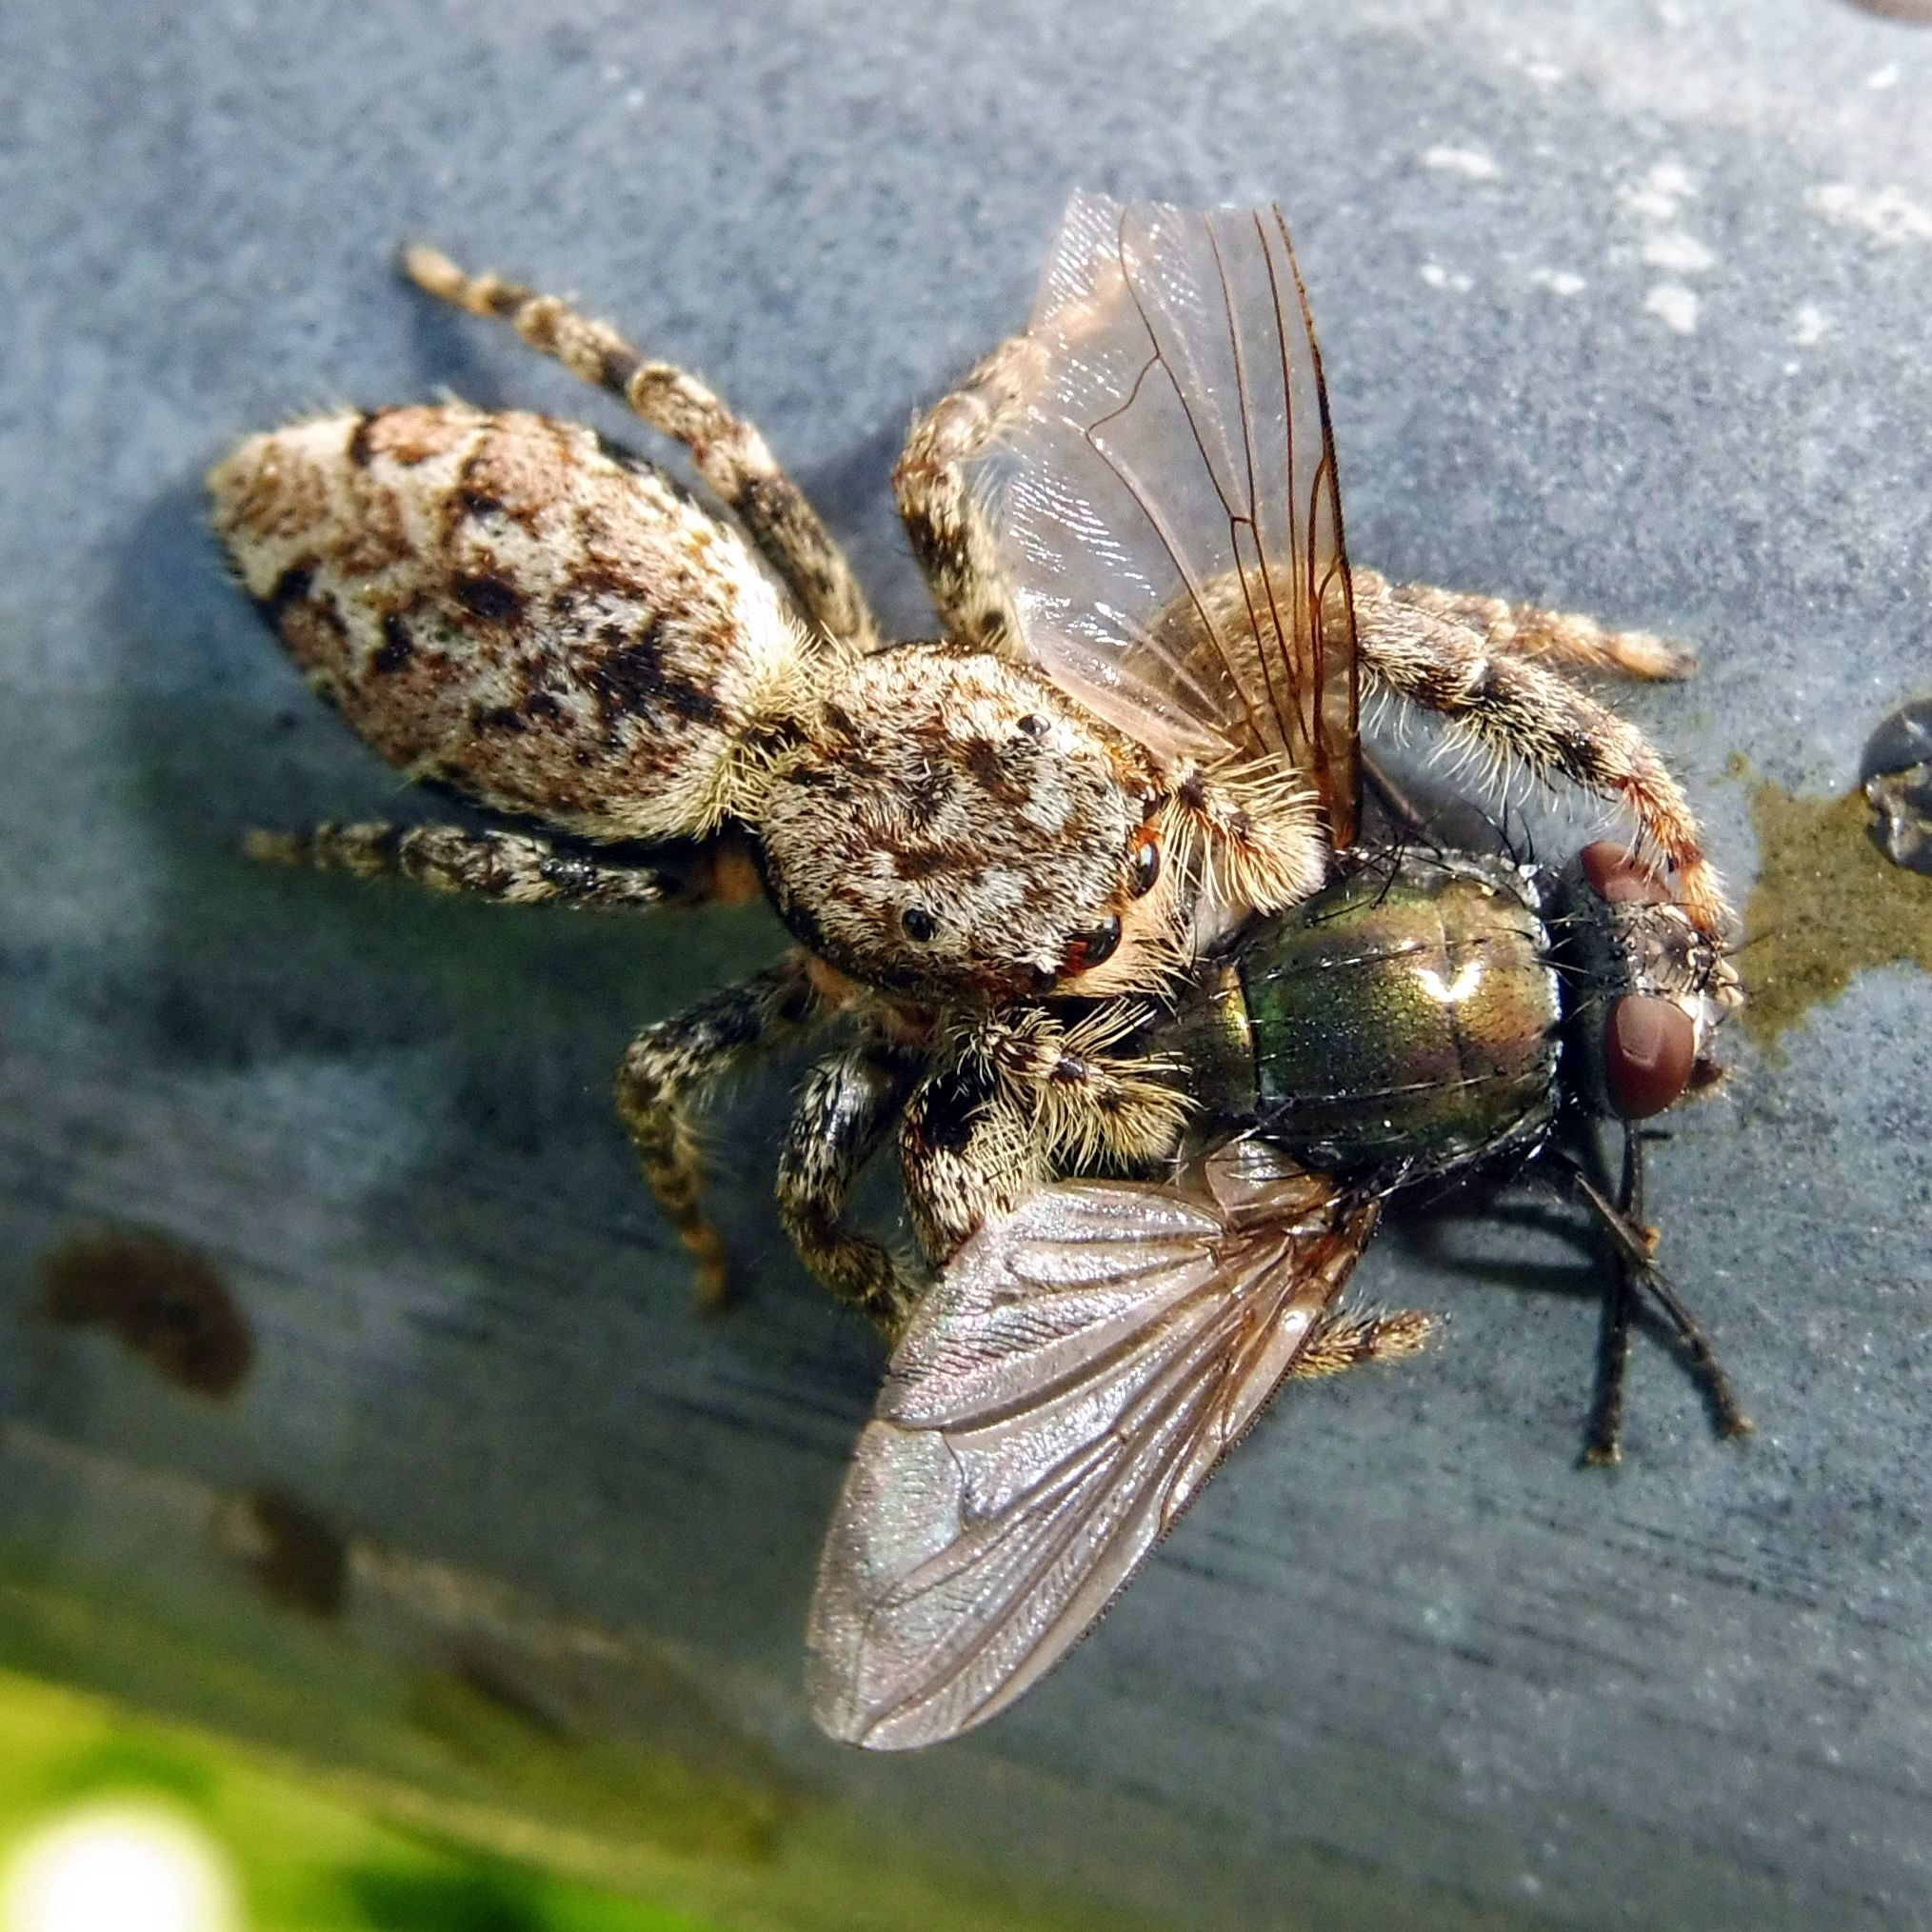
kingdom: Animalia
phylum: Arthropoda
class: Arachnida
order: Araneae
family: Salticidae
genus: Marpissa
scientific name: Marpissa muscosa
